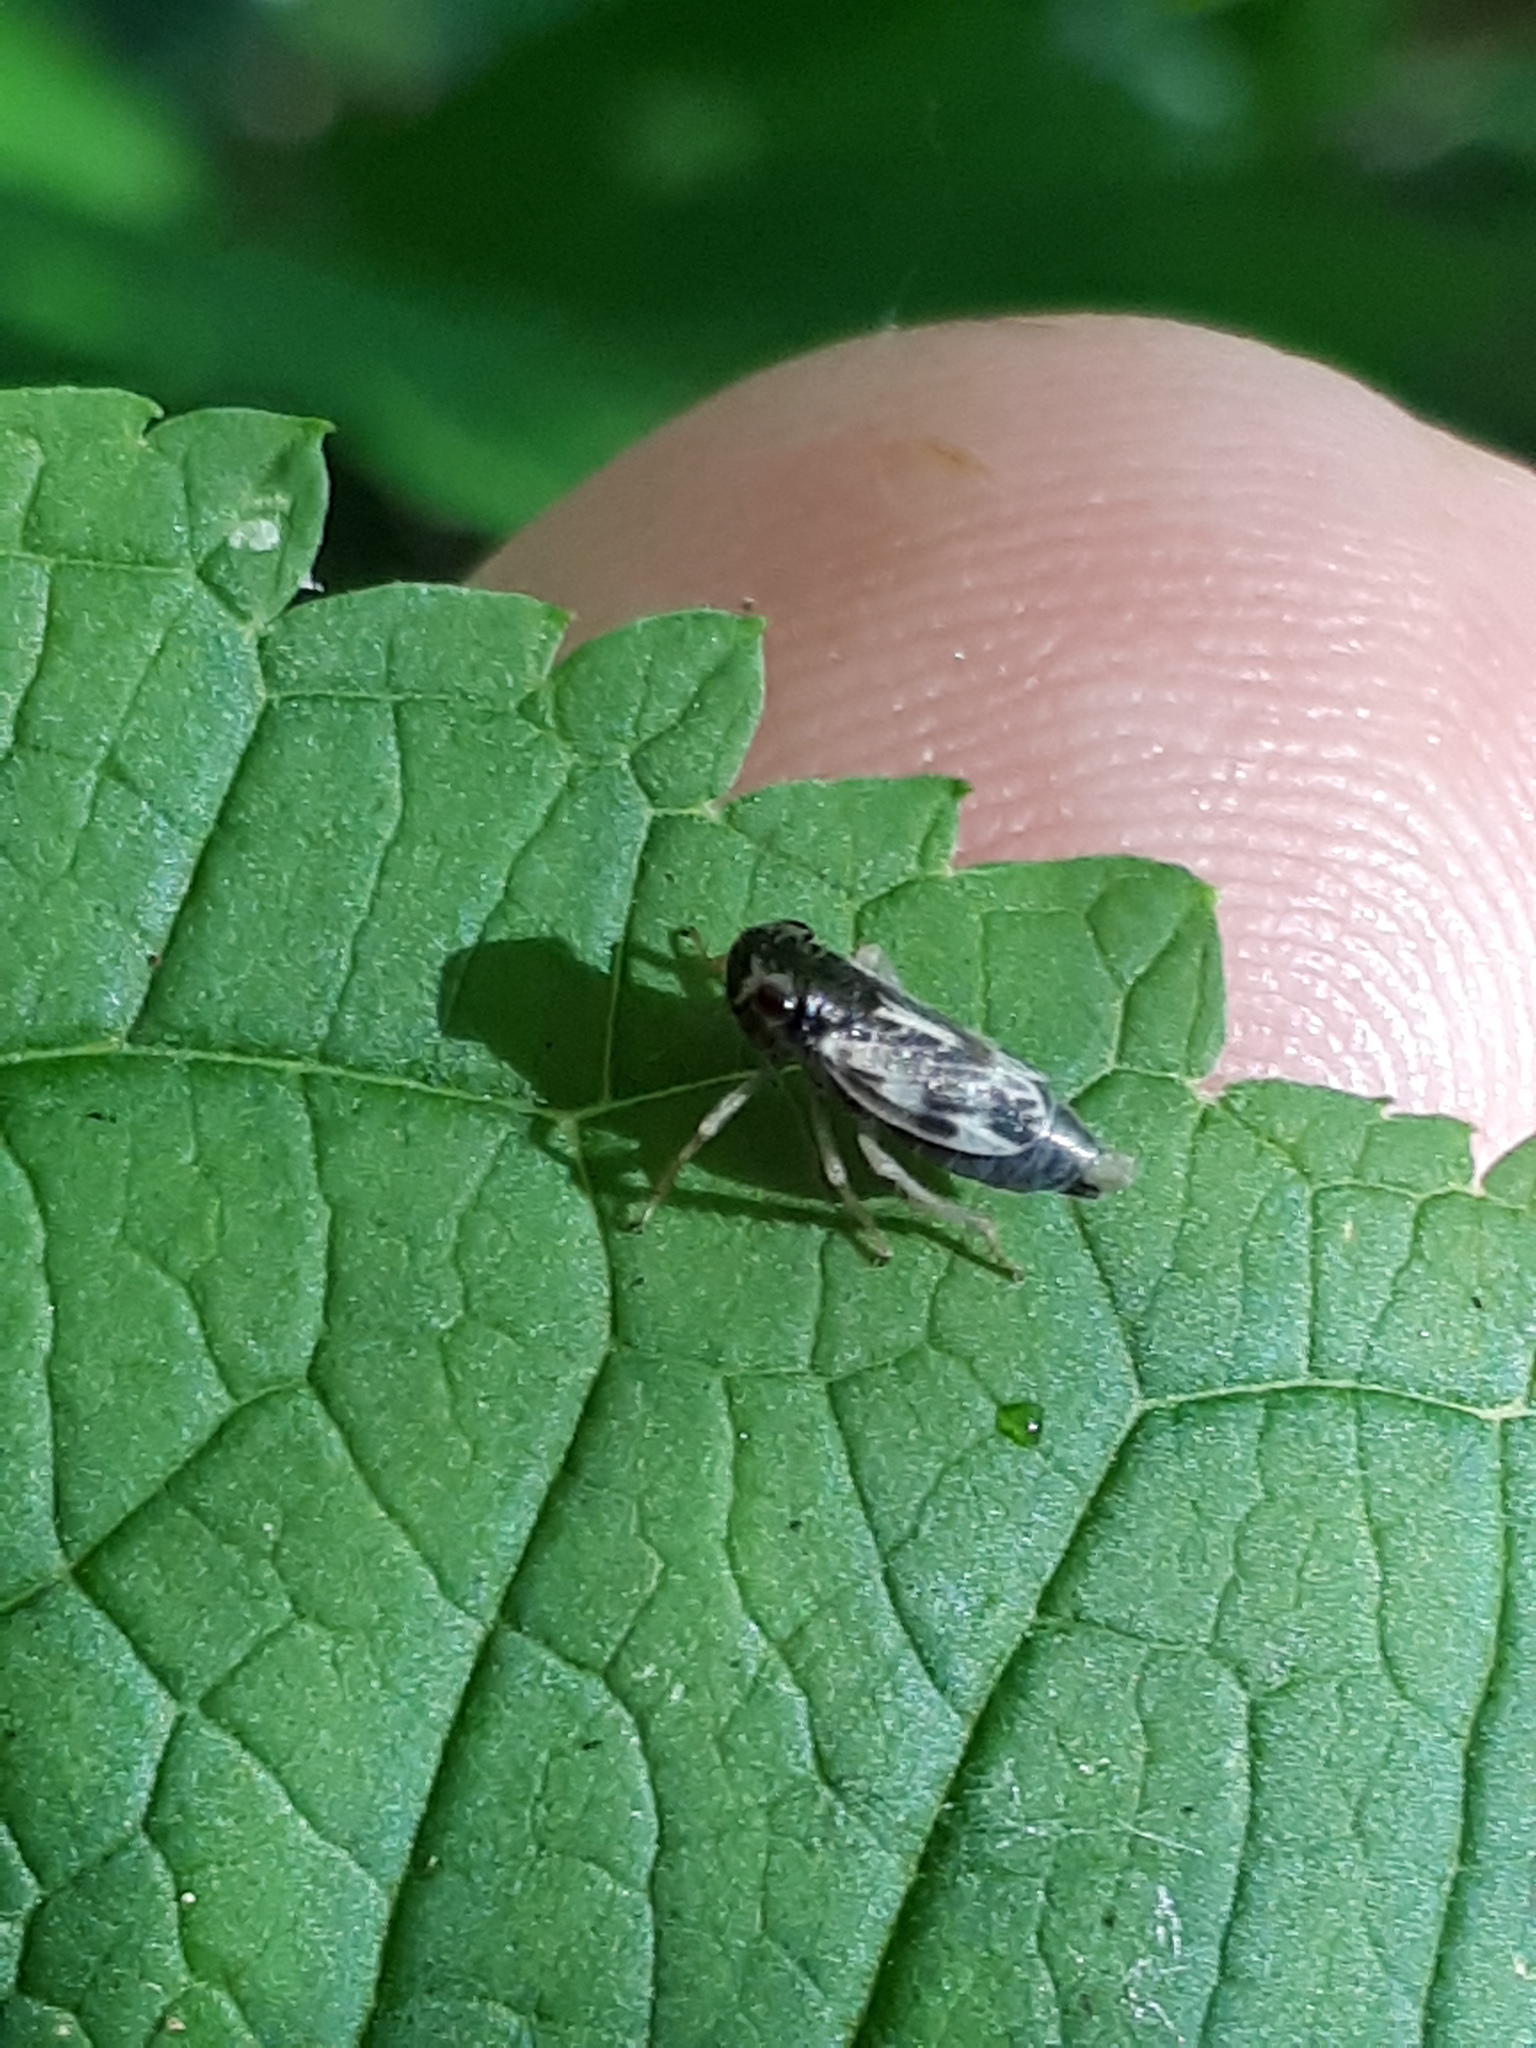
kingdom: Animalia
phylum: Arthropoda
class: Insecta
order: Hemiptera
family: Cicadellidae
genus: Evacanthus
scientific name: Evacanthus acuminatus
